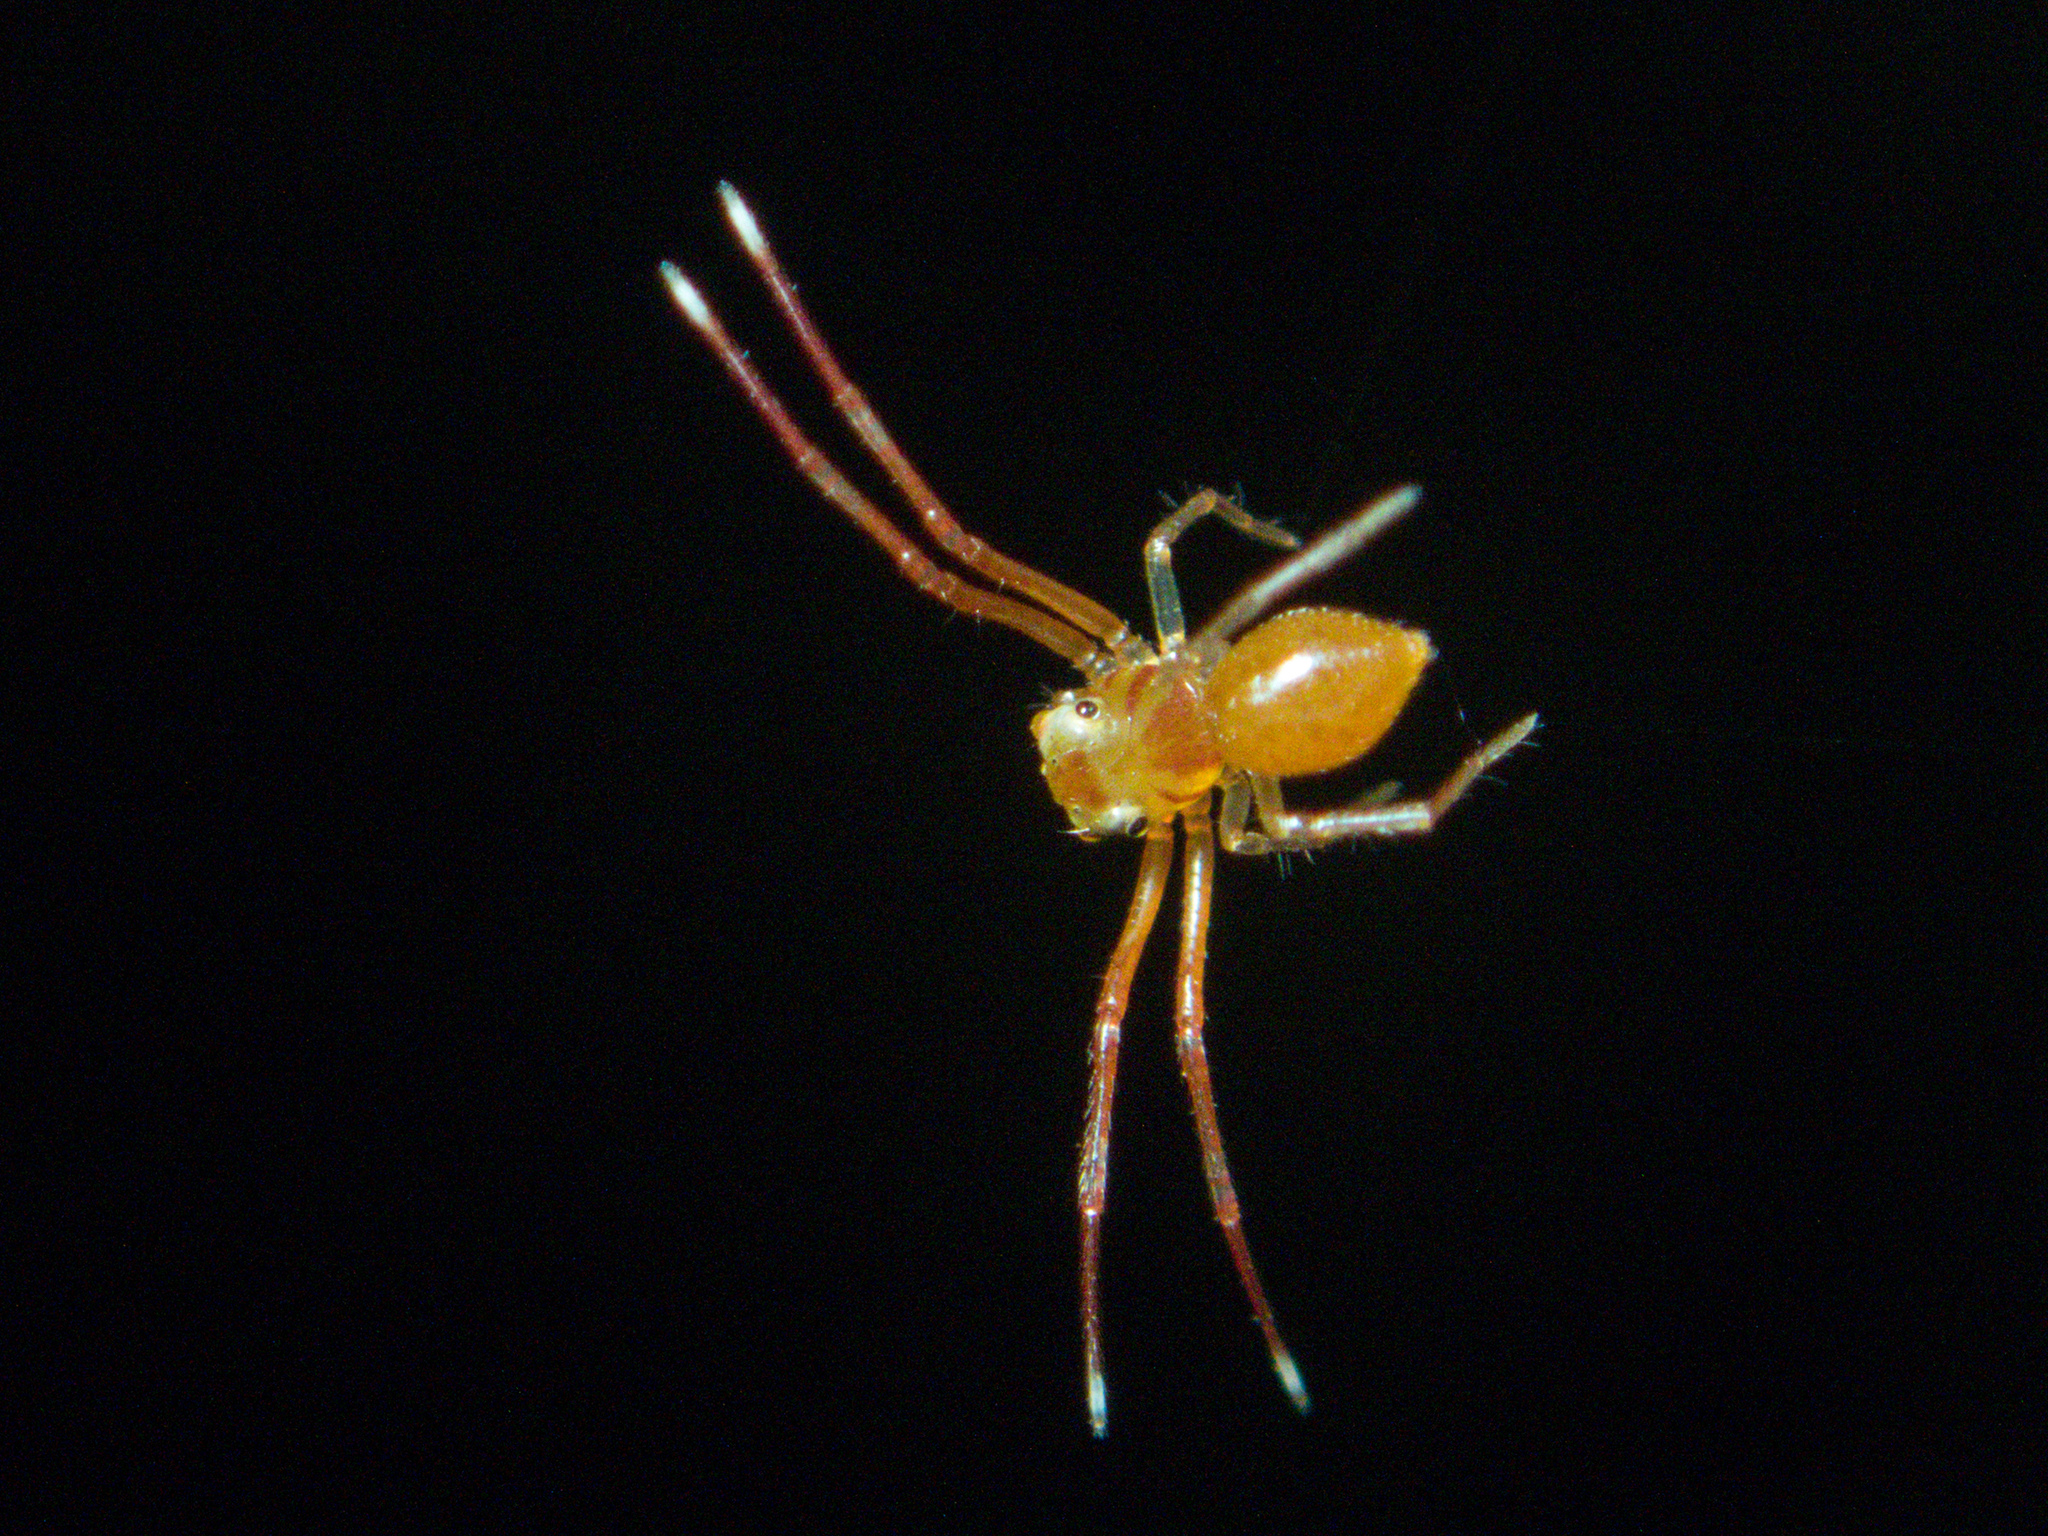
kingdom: Animalia
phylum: Arthropoda
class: Arachnida
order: Araneae
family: Thomisidae
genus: Amyciaea
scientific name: Amyciaea forticeps
